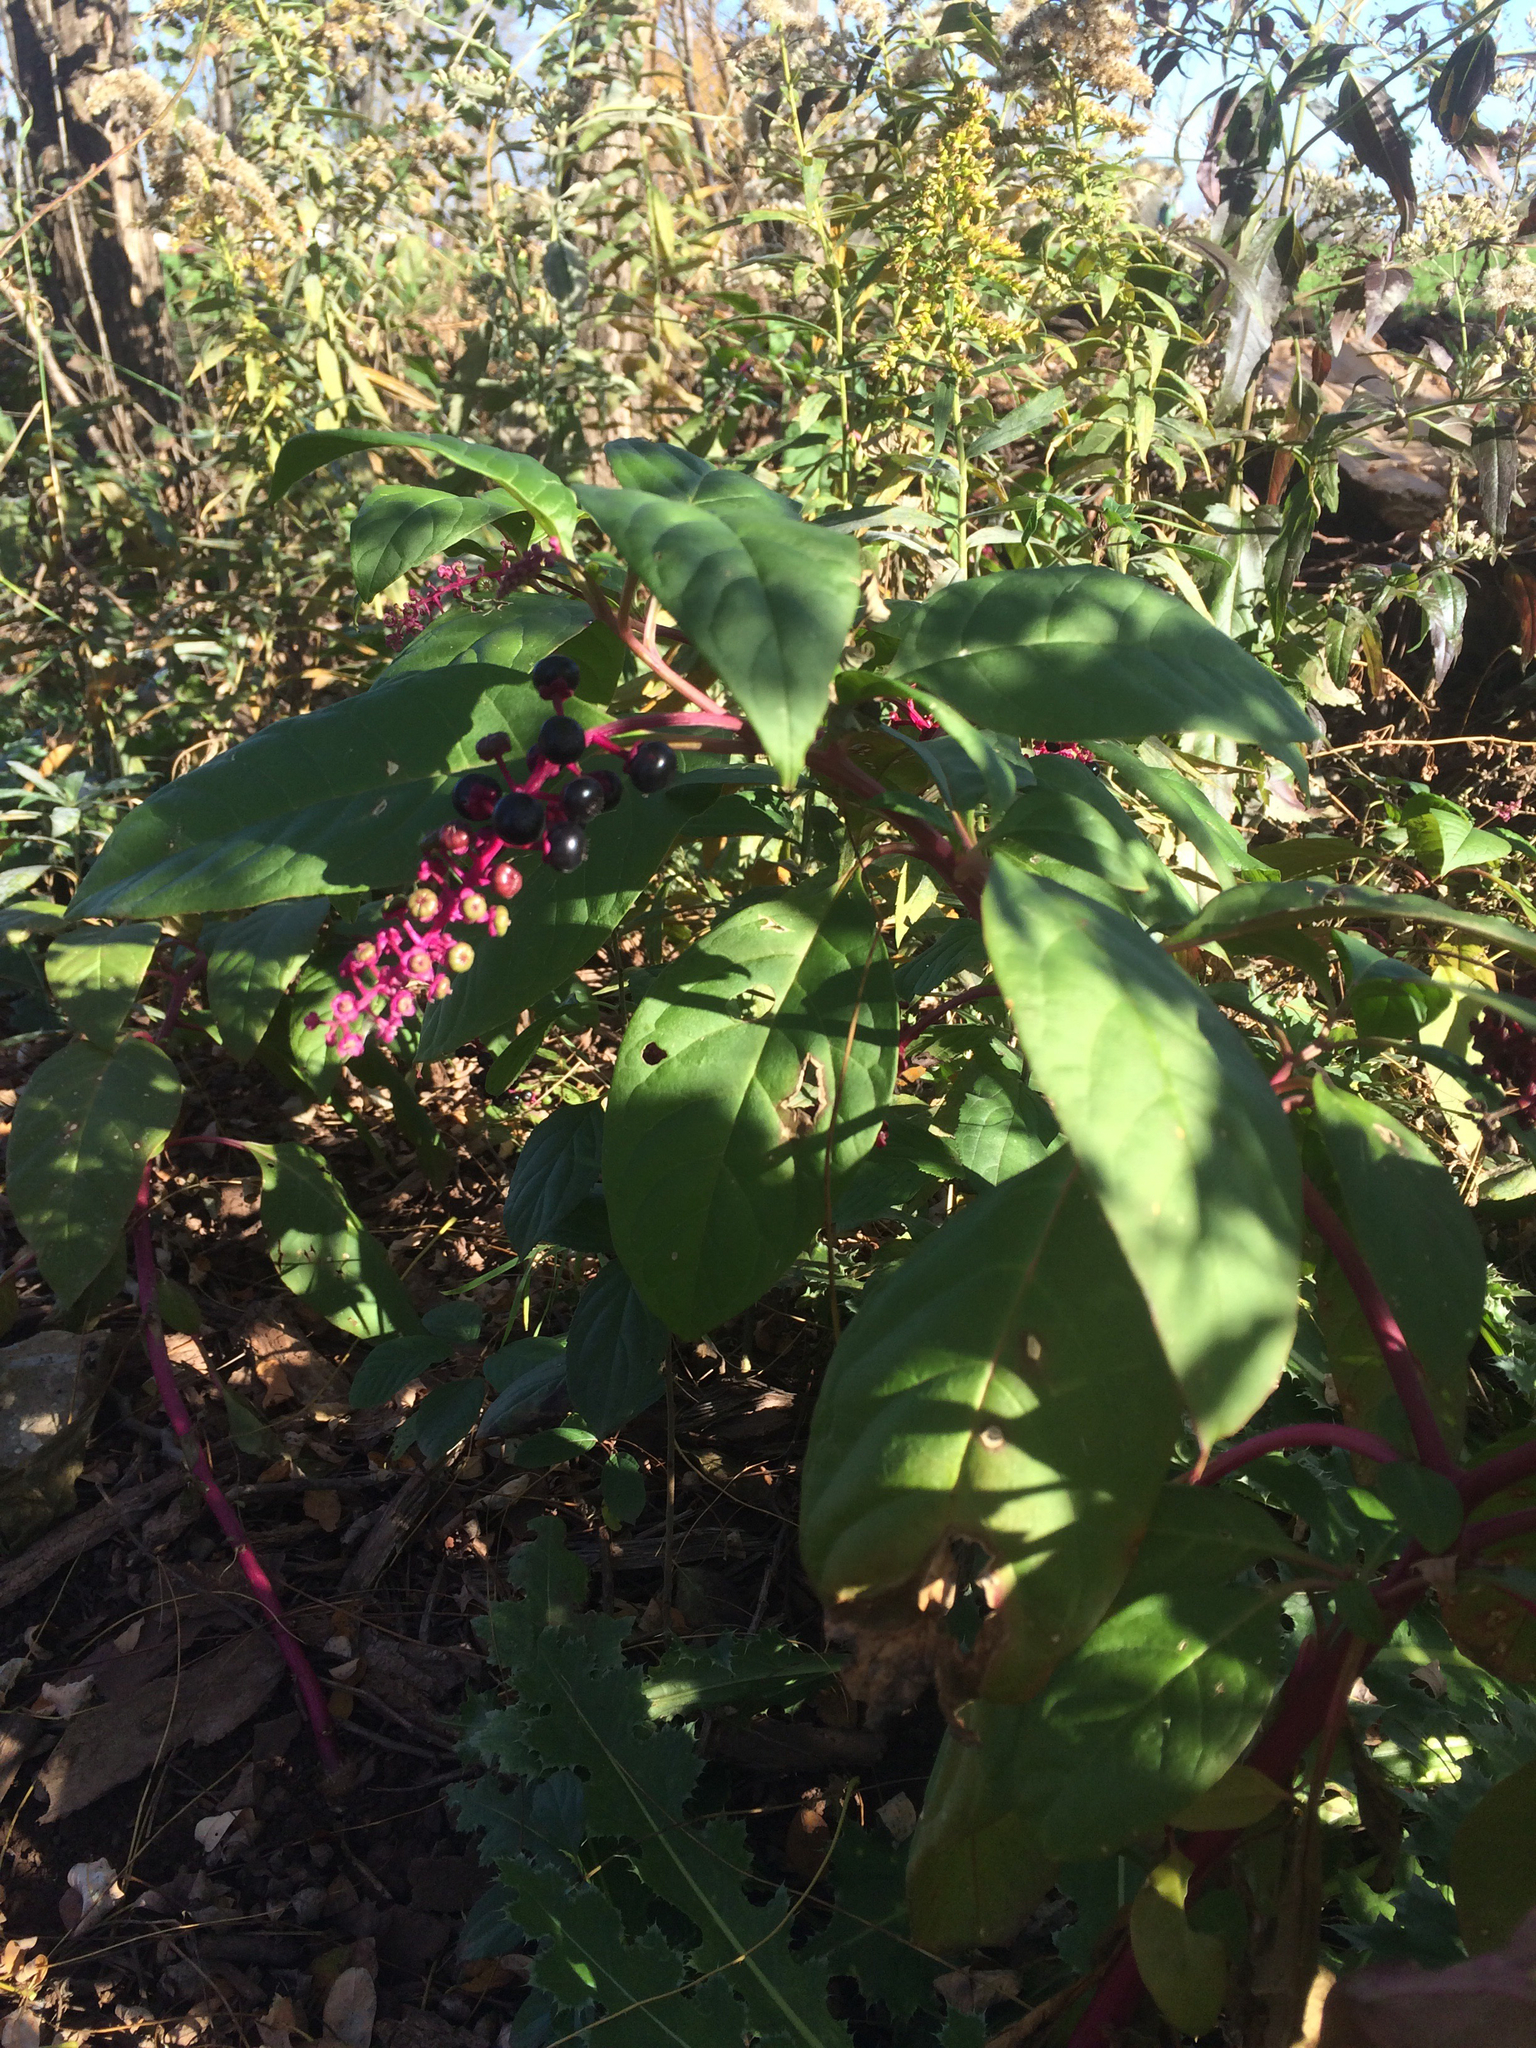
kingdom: Plantae
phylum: Tracheophyta
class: Magnoliopsida
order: Caryophyllales
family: Phytolaccaceae
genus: Phytolacca
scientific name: Phytolacca americana
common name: American pokeweed
